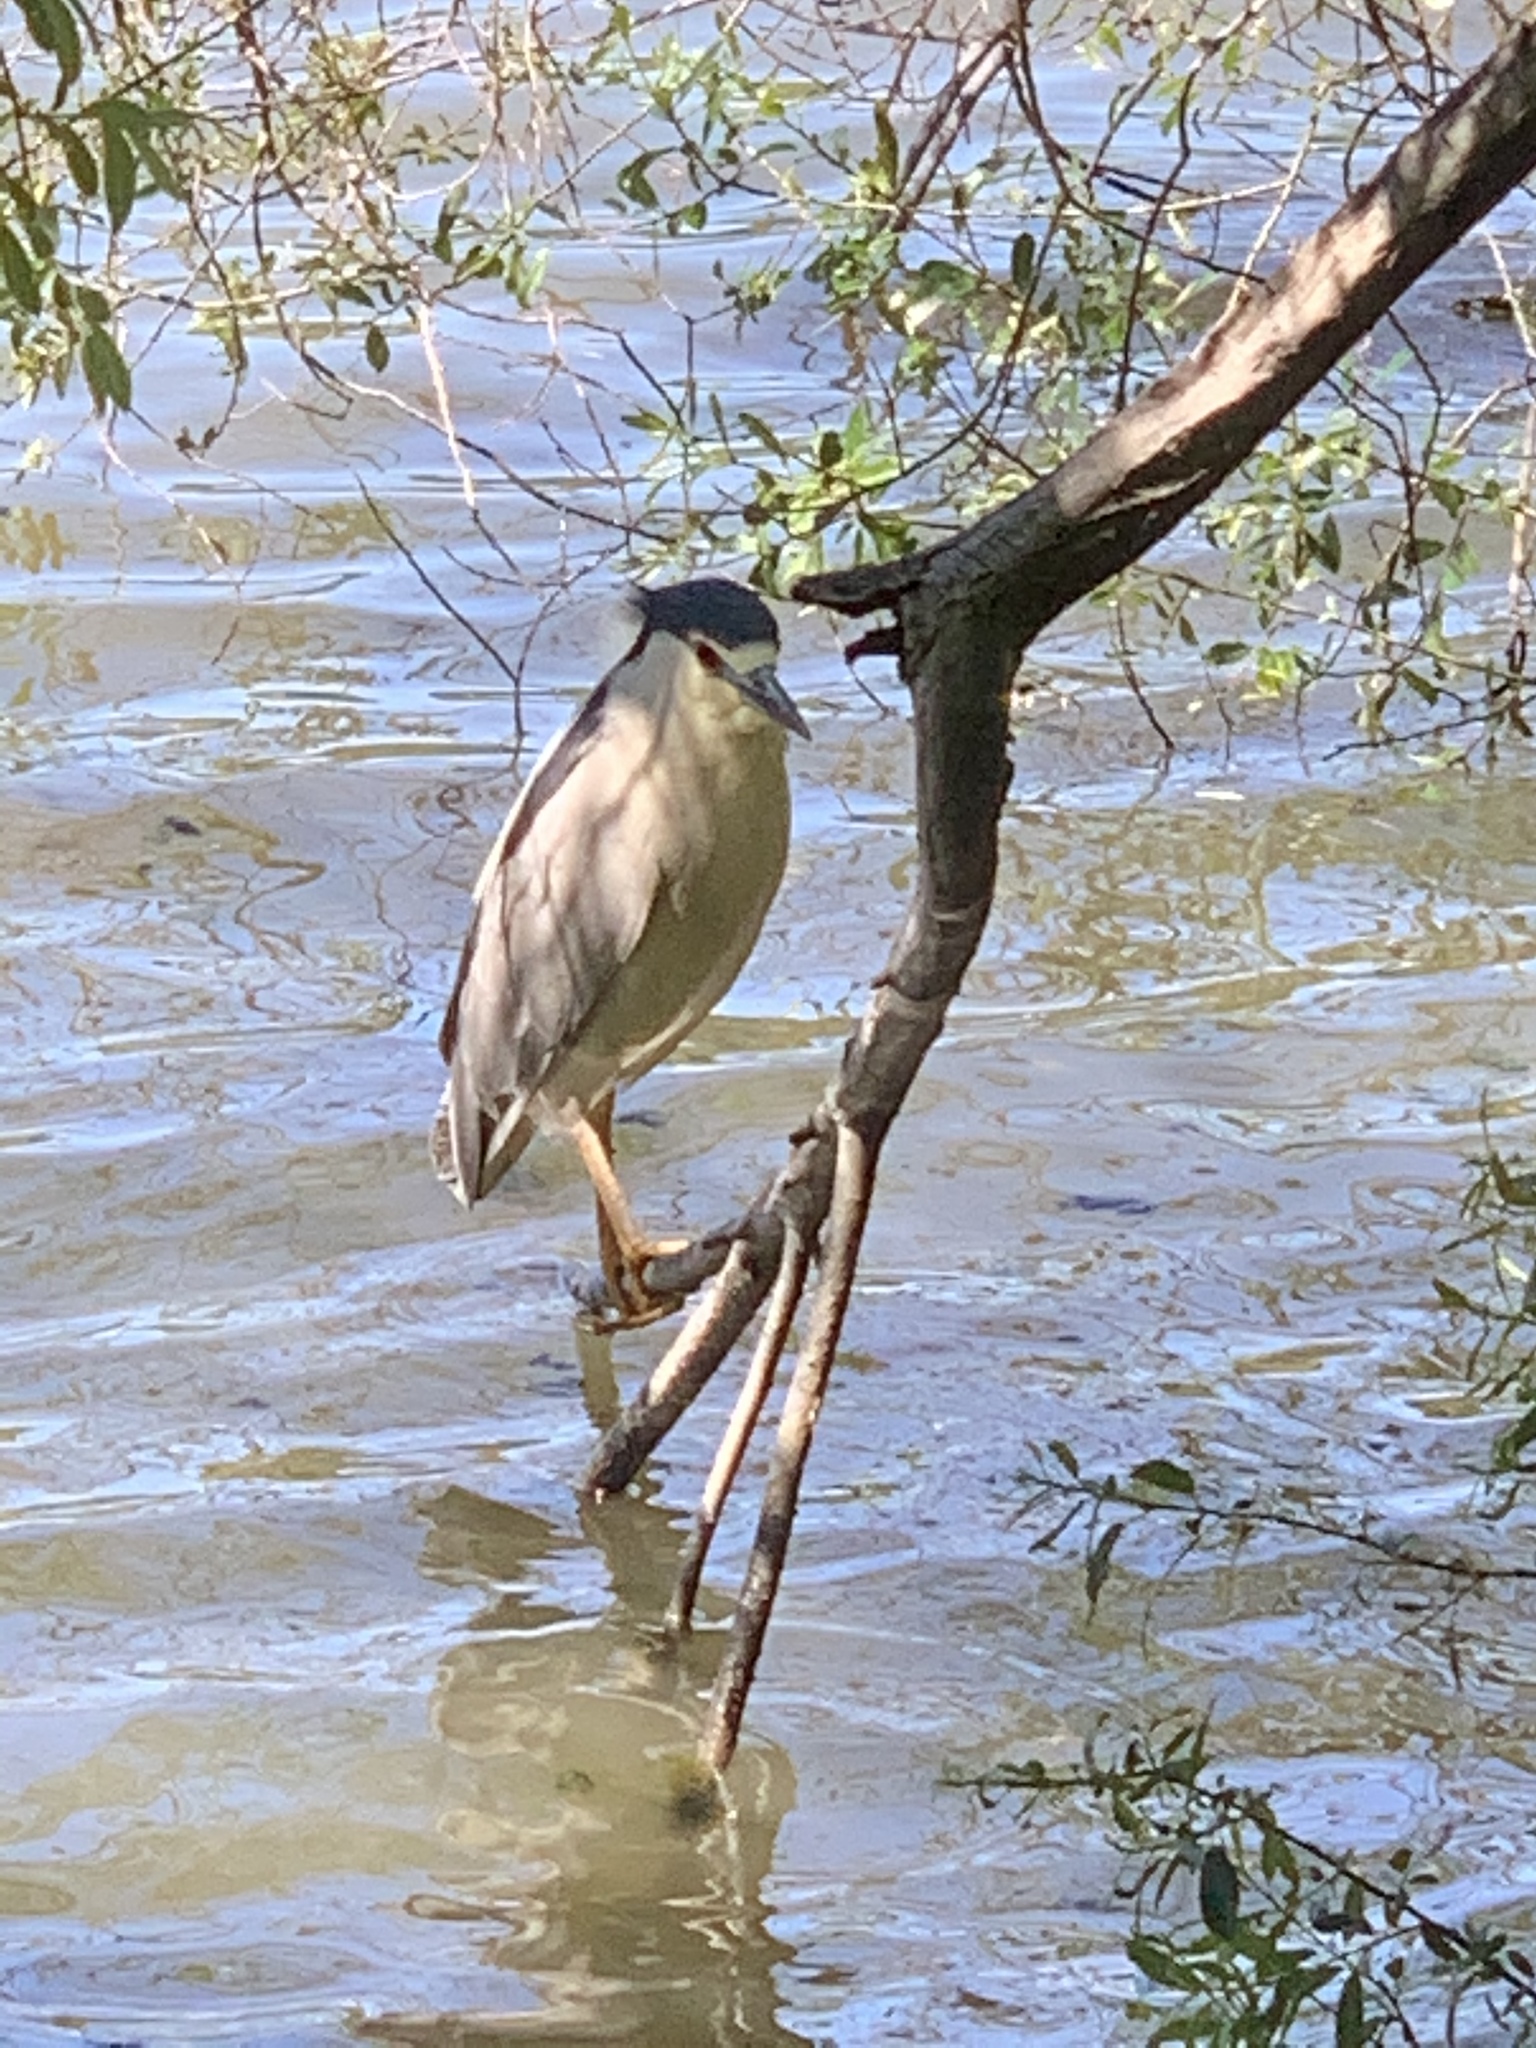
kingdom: Animalia
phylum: Chordata
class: Aves
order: Pelecaniformes
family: Ardeidae
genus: Nycticorax
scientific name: Nycticorax nycticorax
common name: Black-crowned night heron
